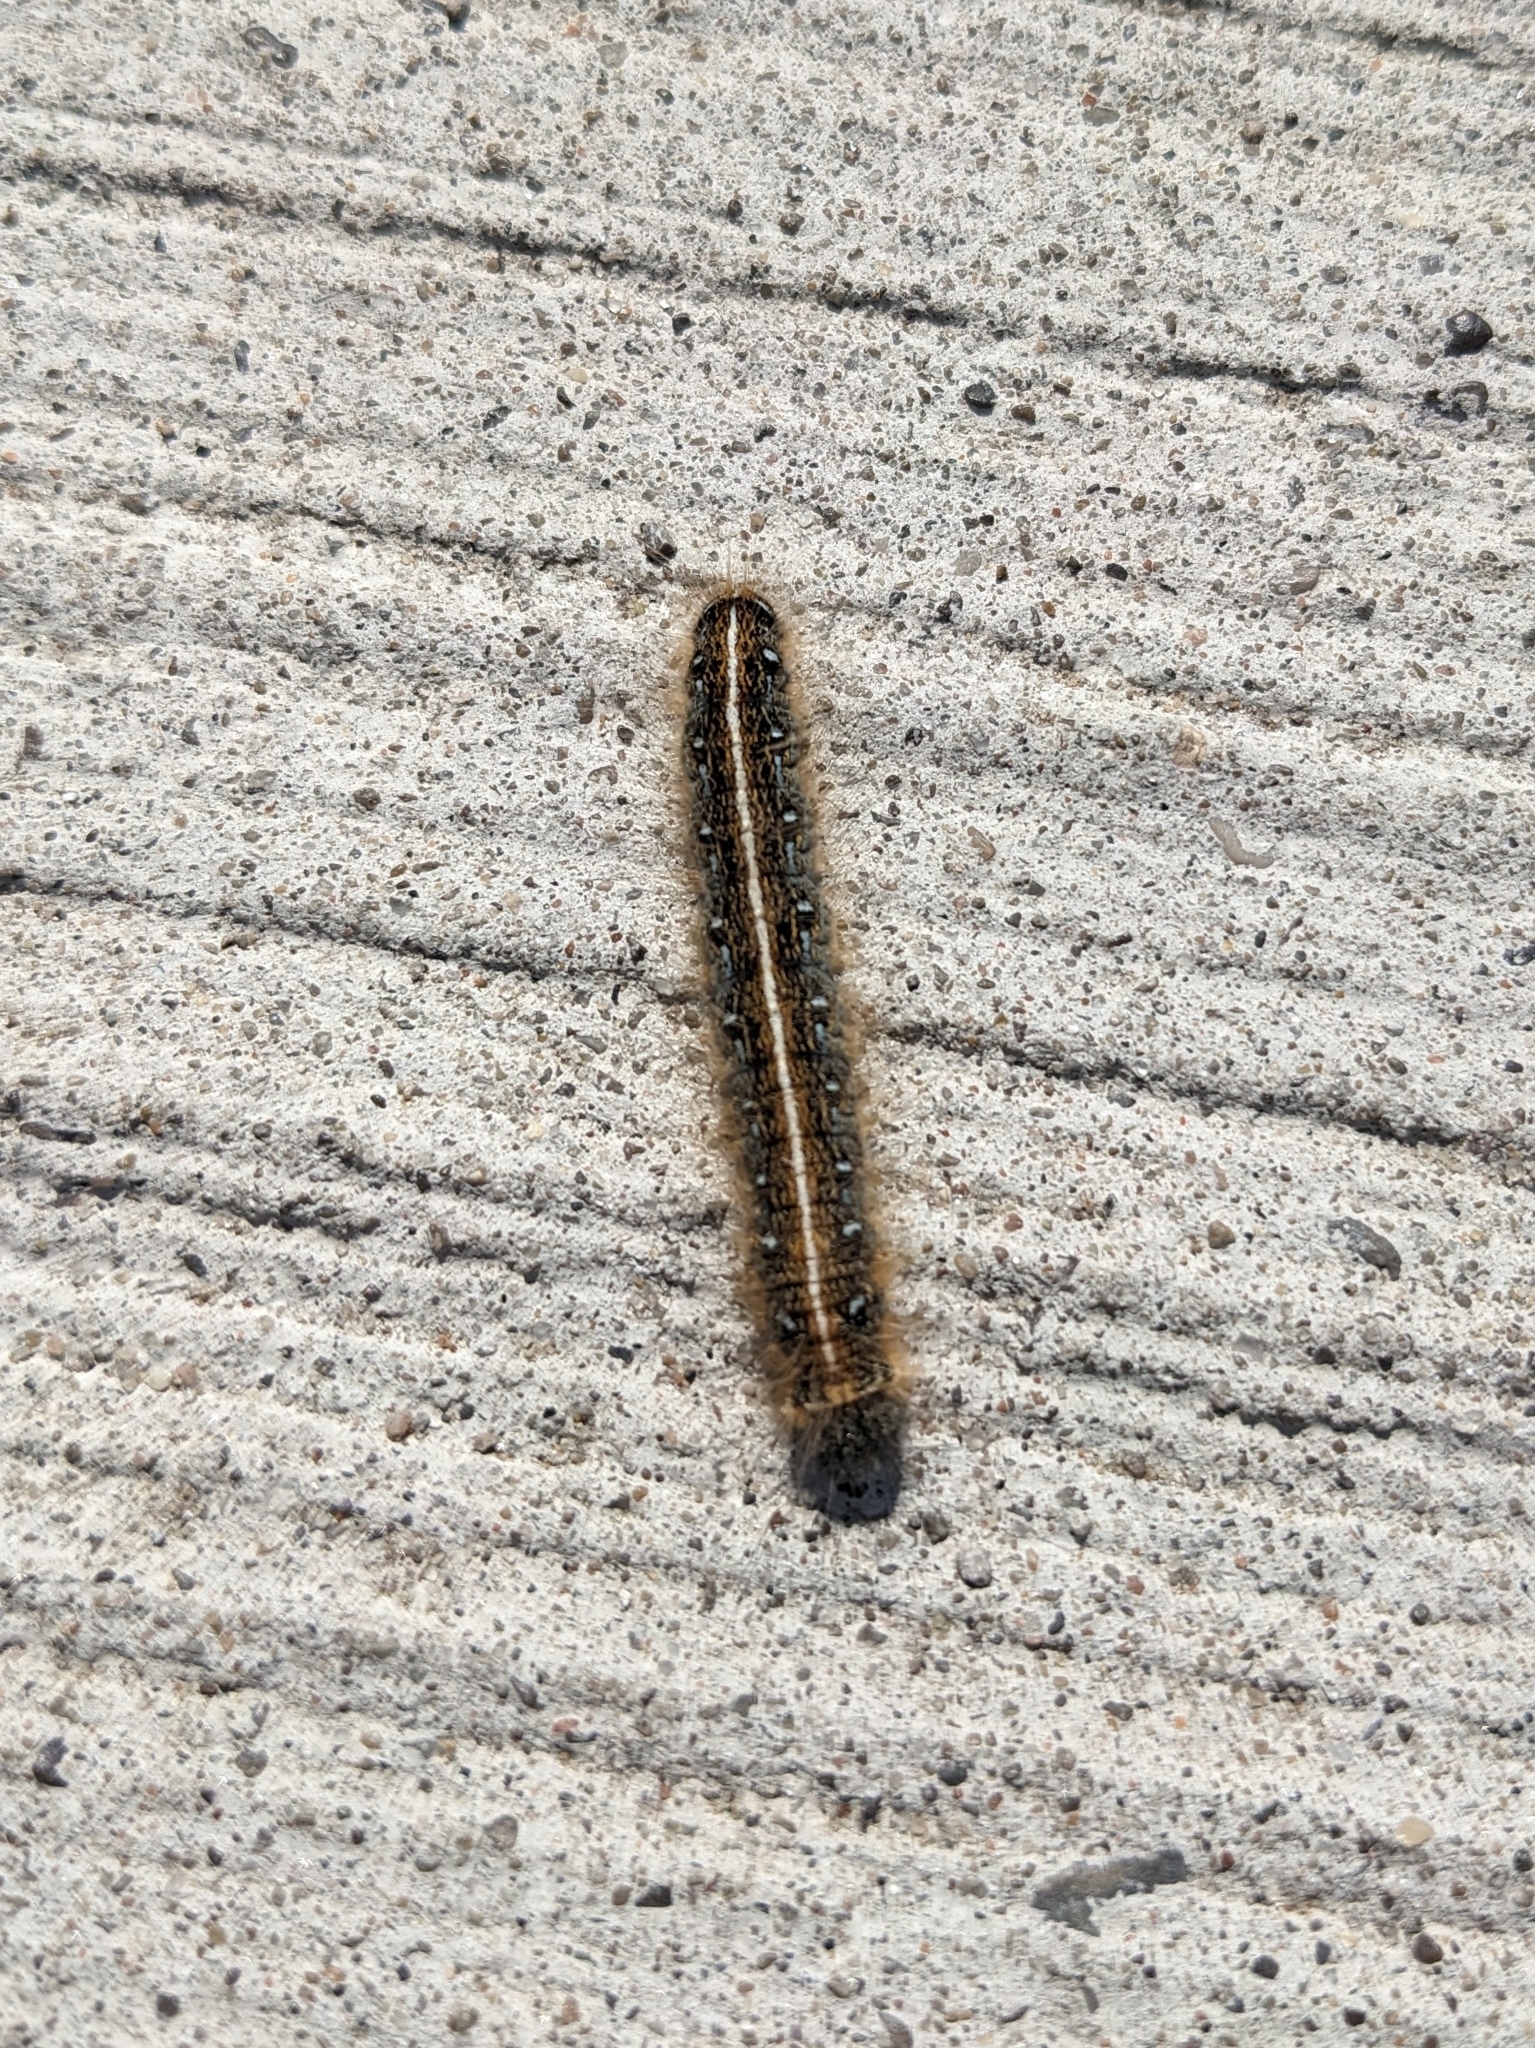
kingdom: Animalia
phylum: Arthropoda
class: Insecta
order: Lepidoptera
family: Lasiocampidae
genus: Malacosoma
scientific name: Malacosoma americana
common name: Eastern tent caterpillar moth
